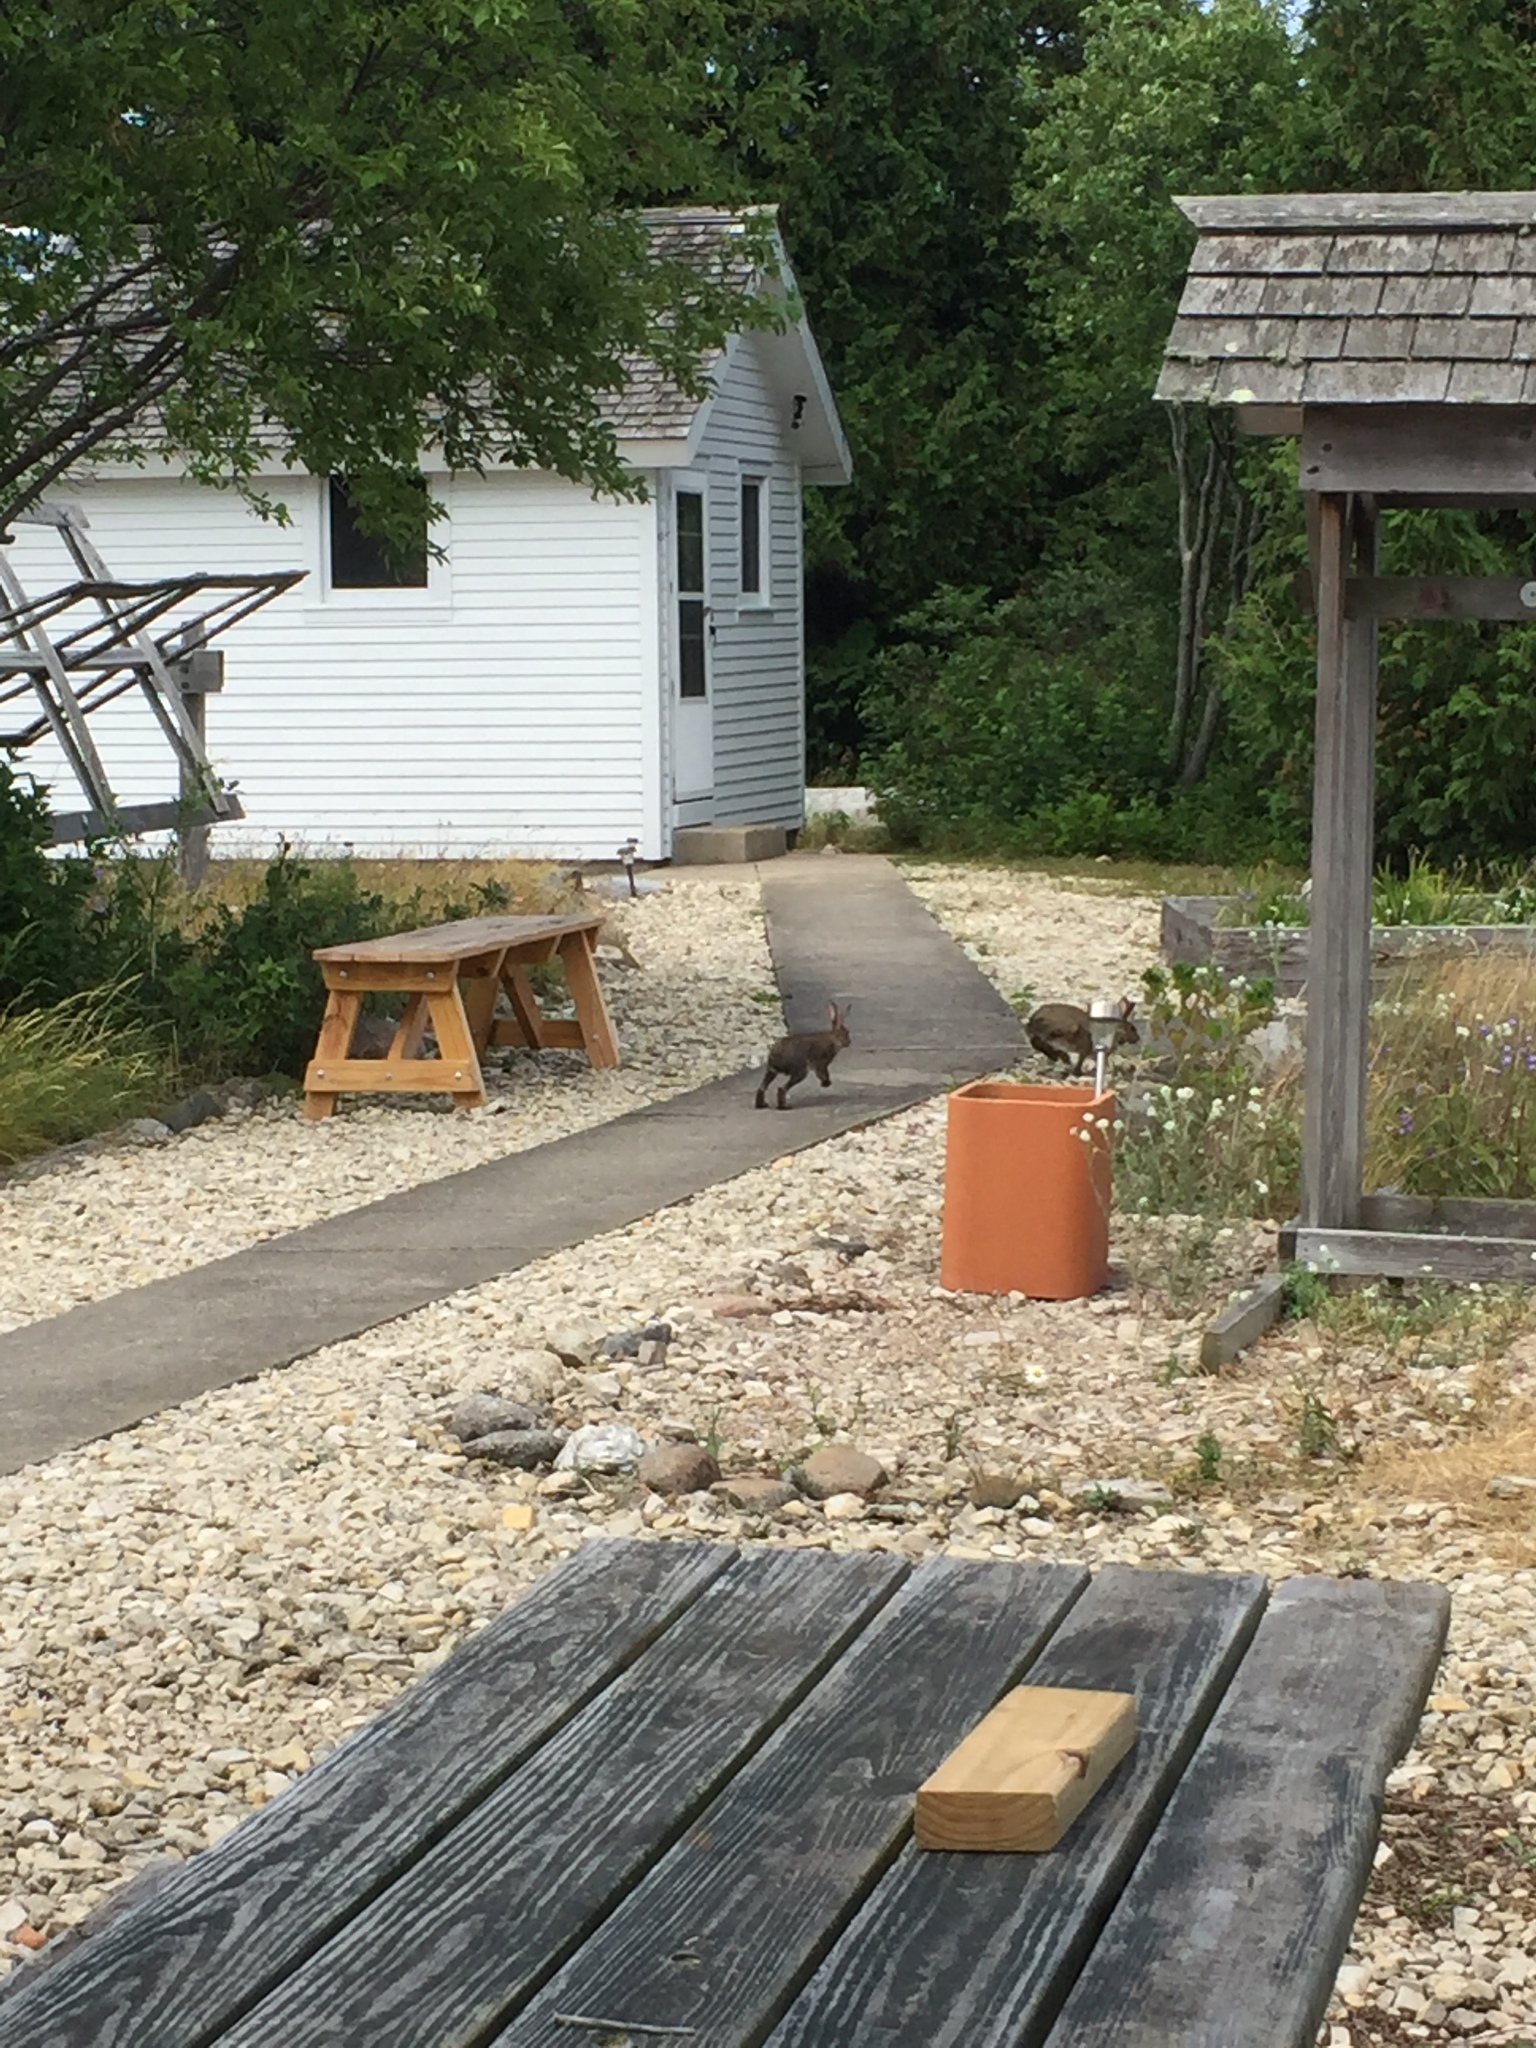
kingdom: Animalia
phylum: Chordata
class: Mammalia
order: Lagomorpha
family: Leporidae
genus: Lepus
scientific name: Lepus americanus
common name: Snowshoe hare
